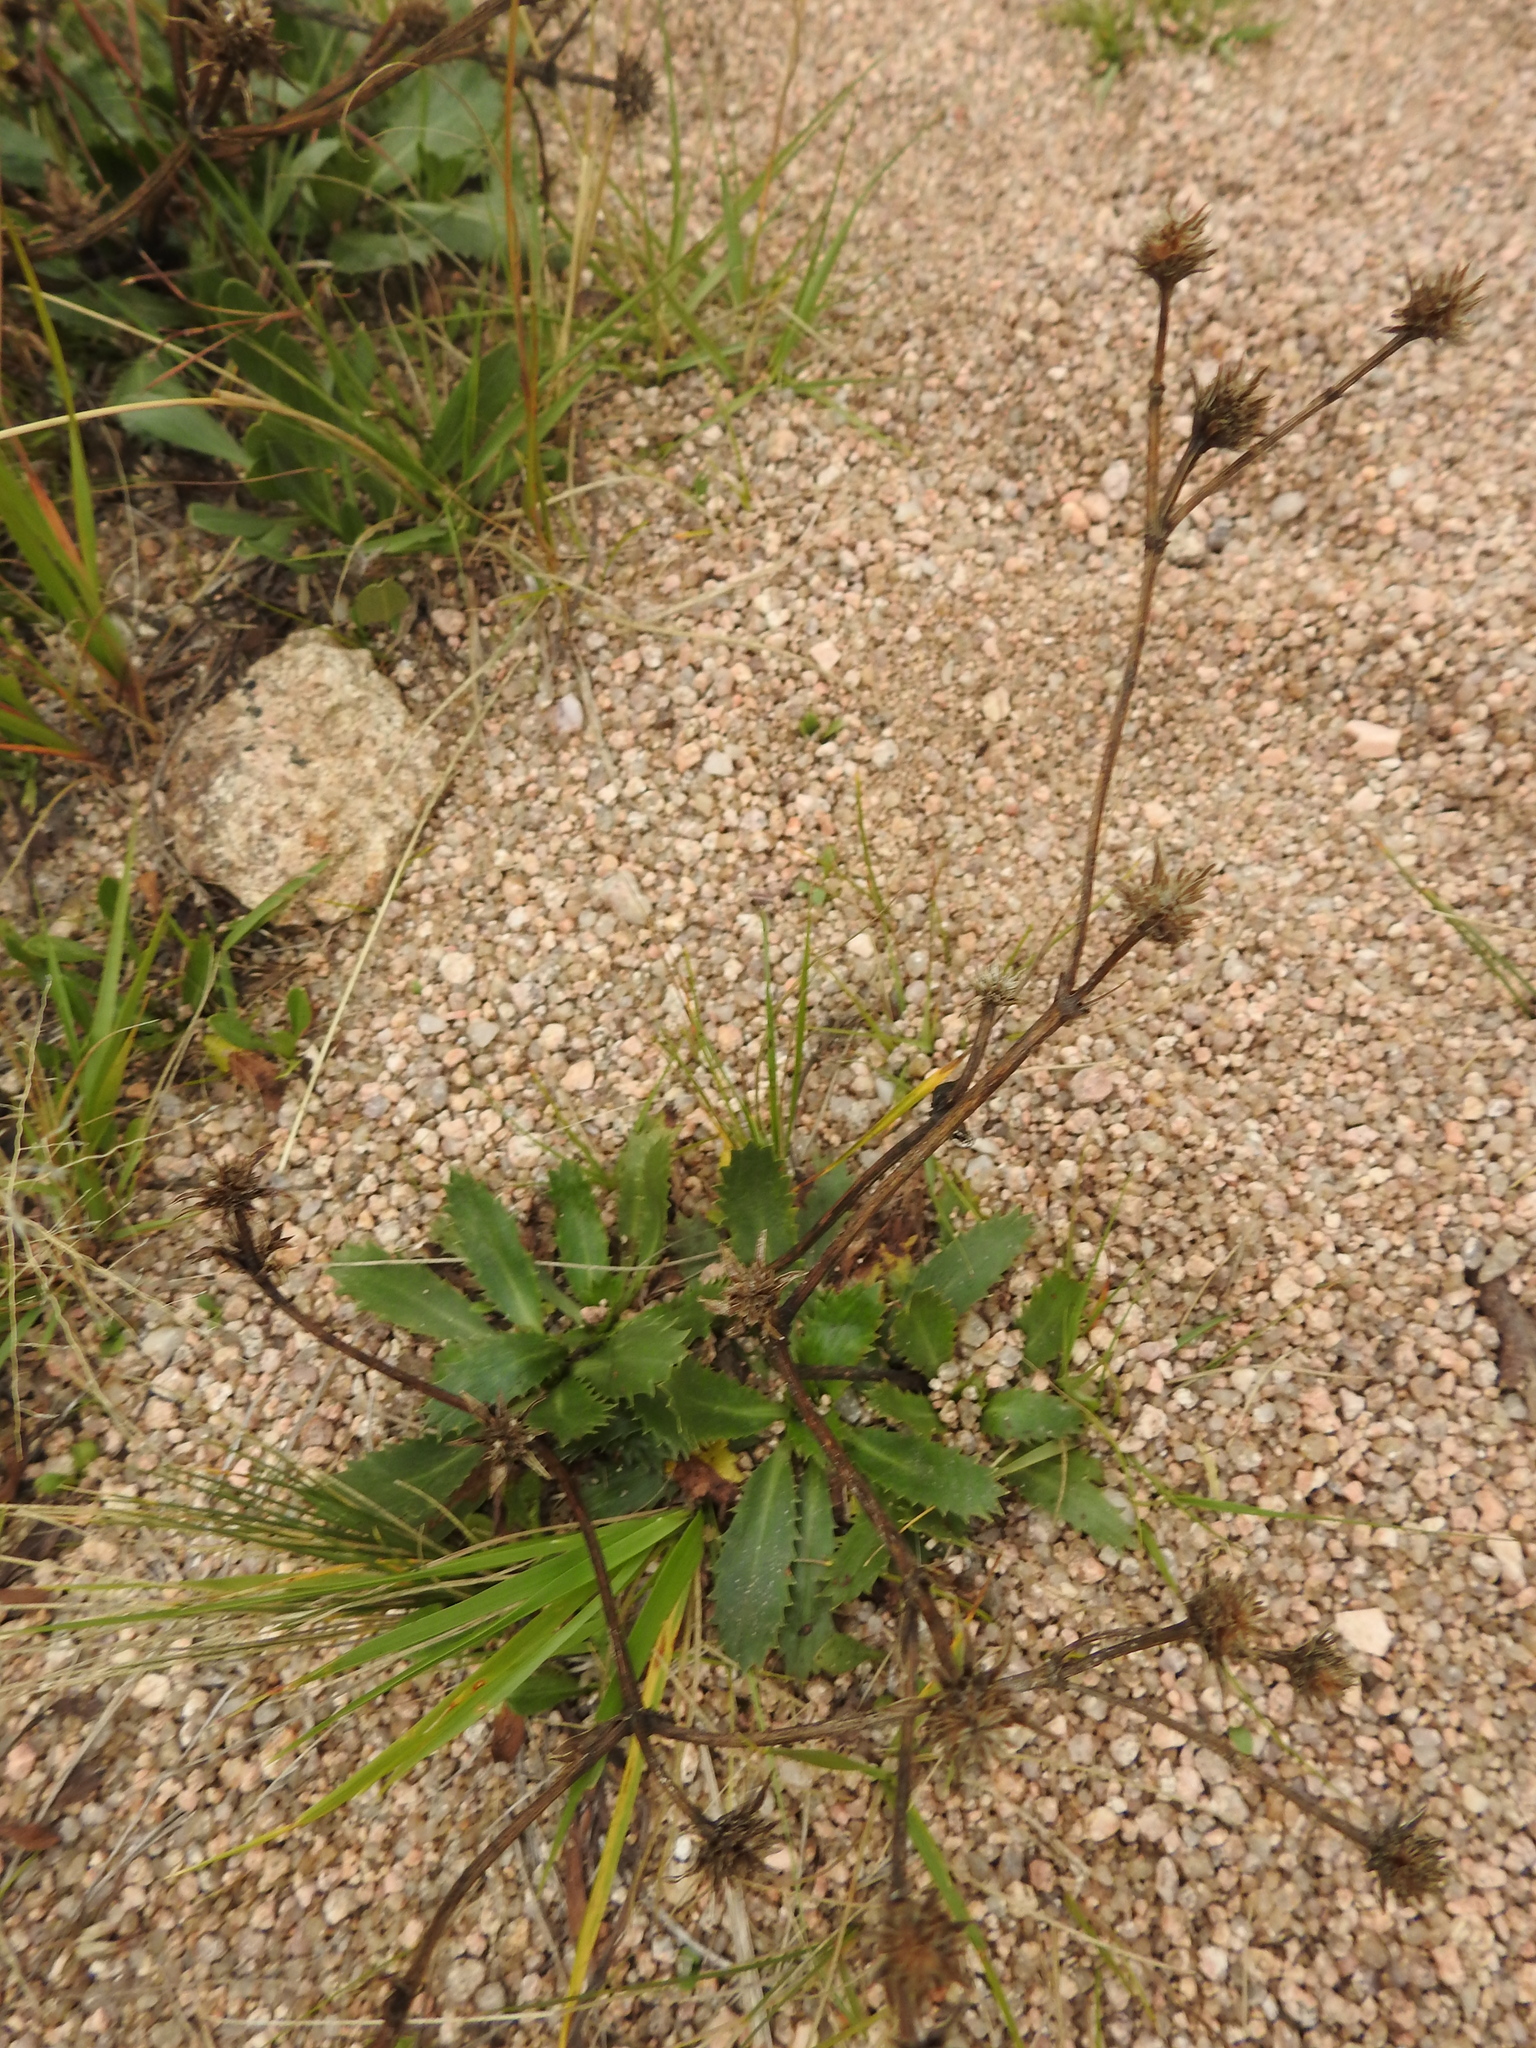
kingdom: Plantae
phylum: Tracheophyta
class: Magnoliopsida
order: Apiales
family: Apiaceae
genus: Eryngium
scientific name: Eryngium nudicaule
